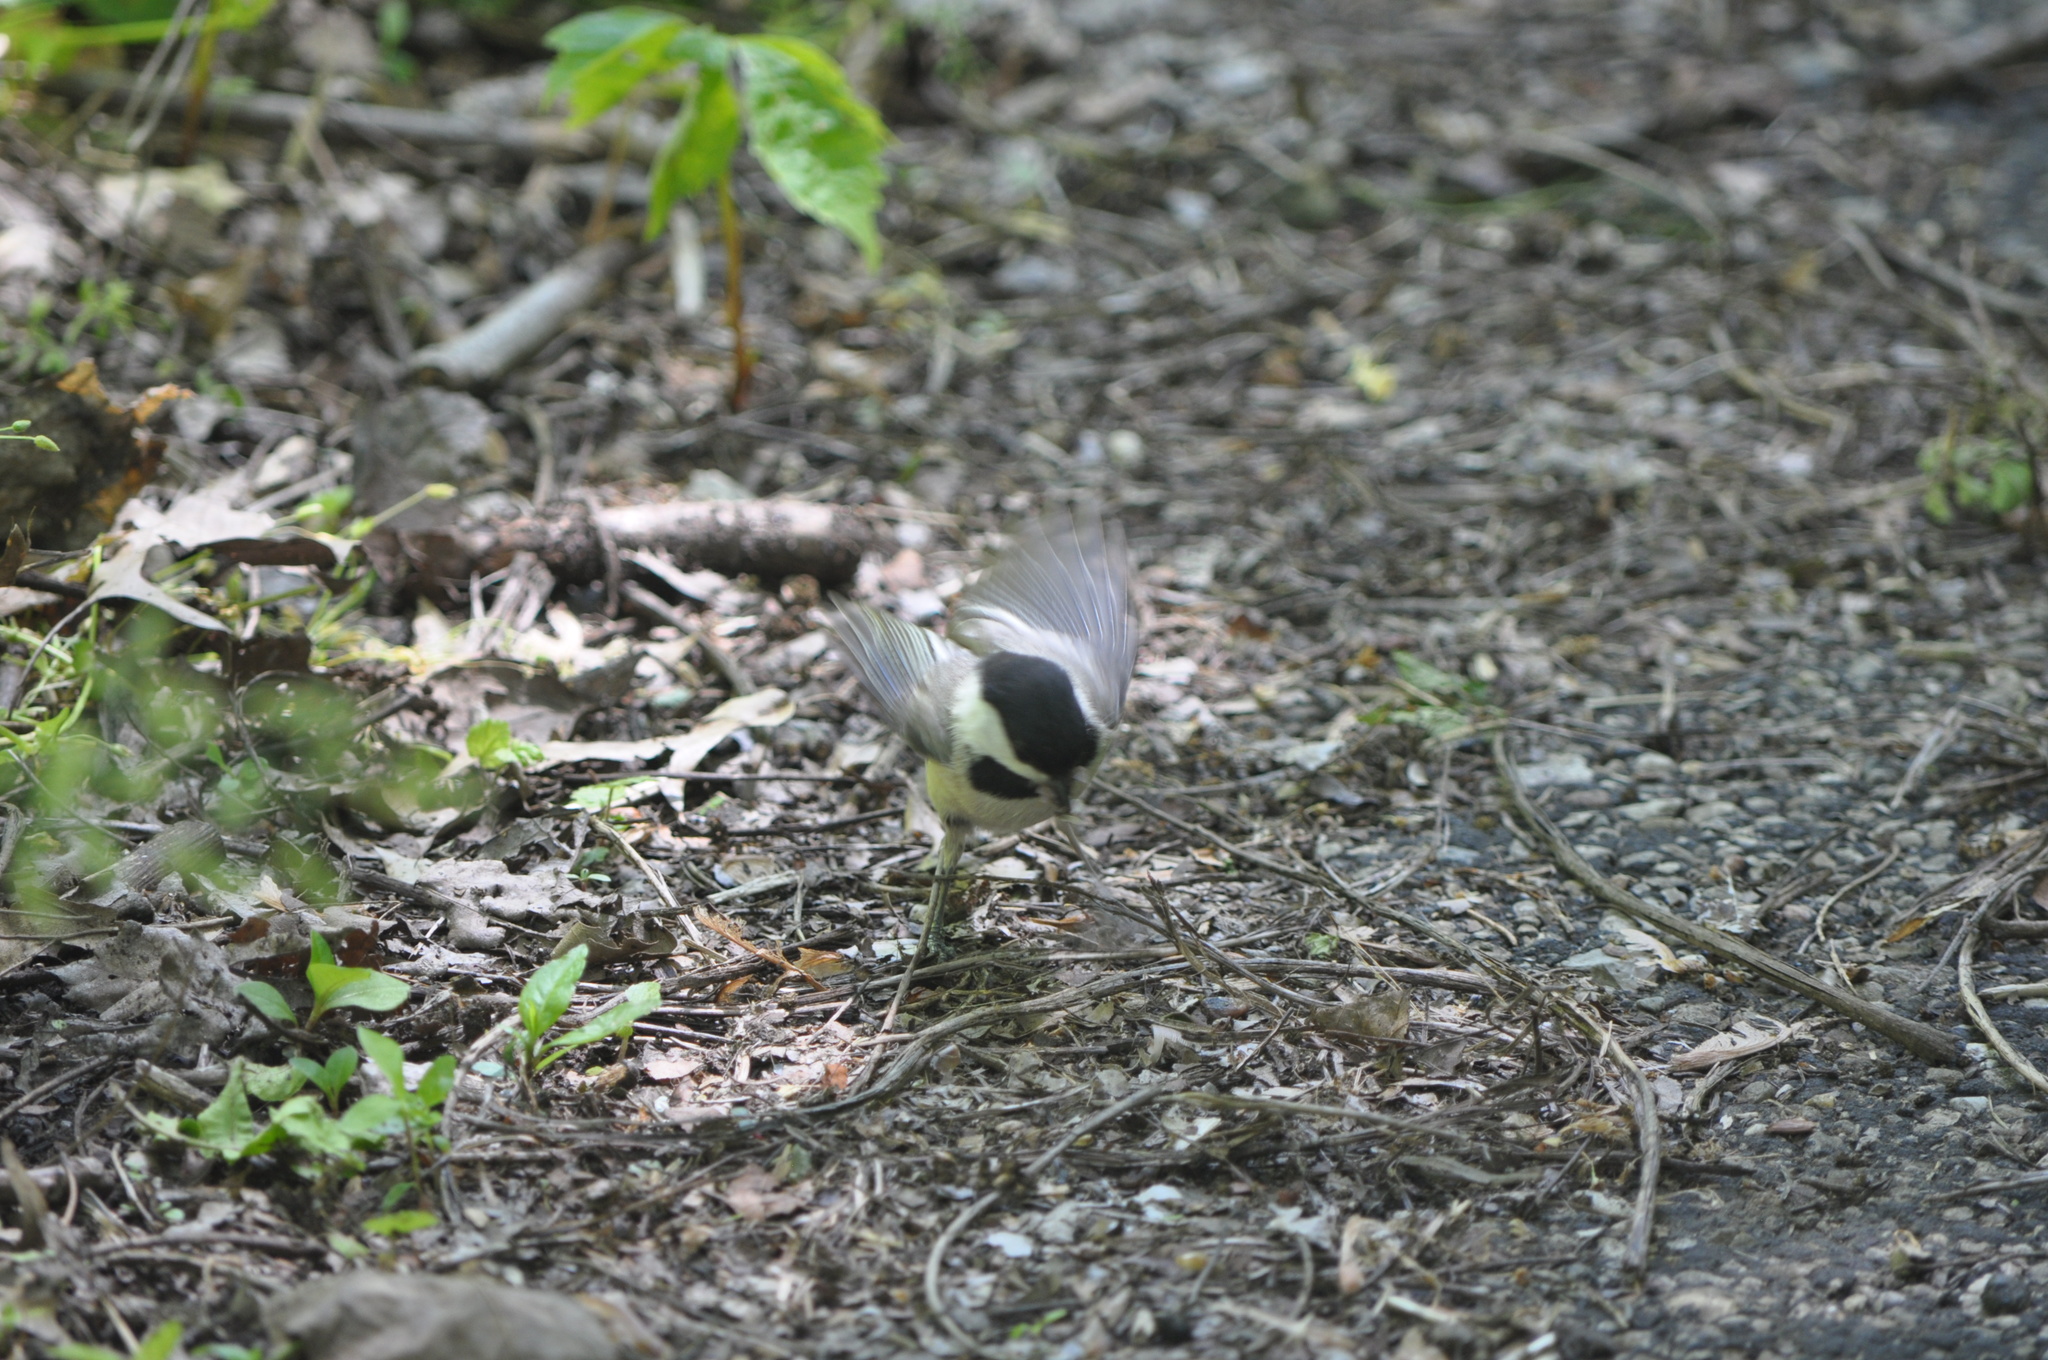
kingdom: Animalia
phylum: Chordata
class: Aves
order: Passeriformes
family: Paridae
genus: Poecile
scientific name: Poecile carolinensis
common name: Carolina chickadee
